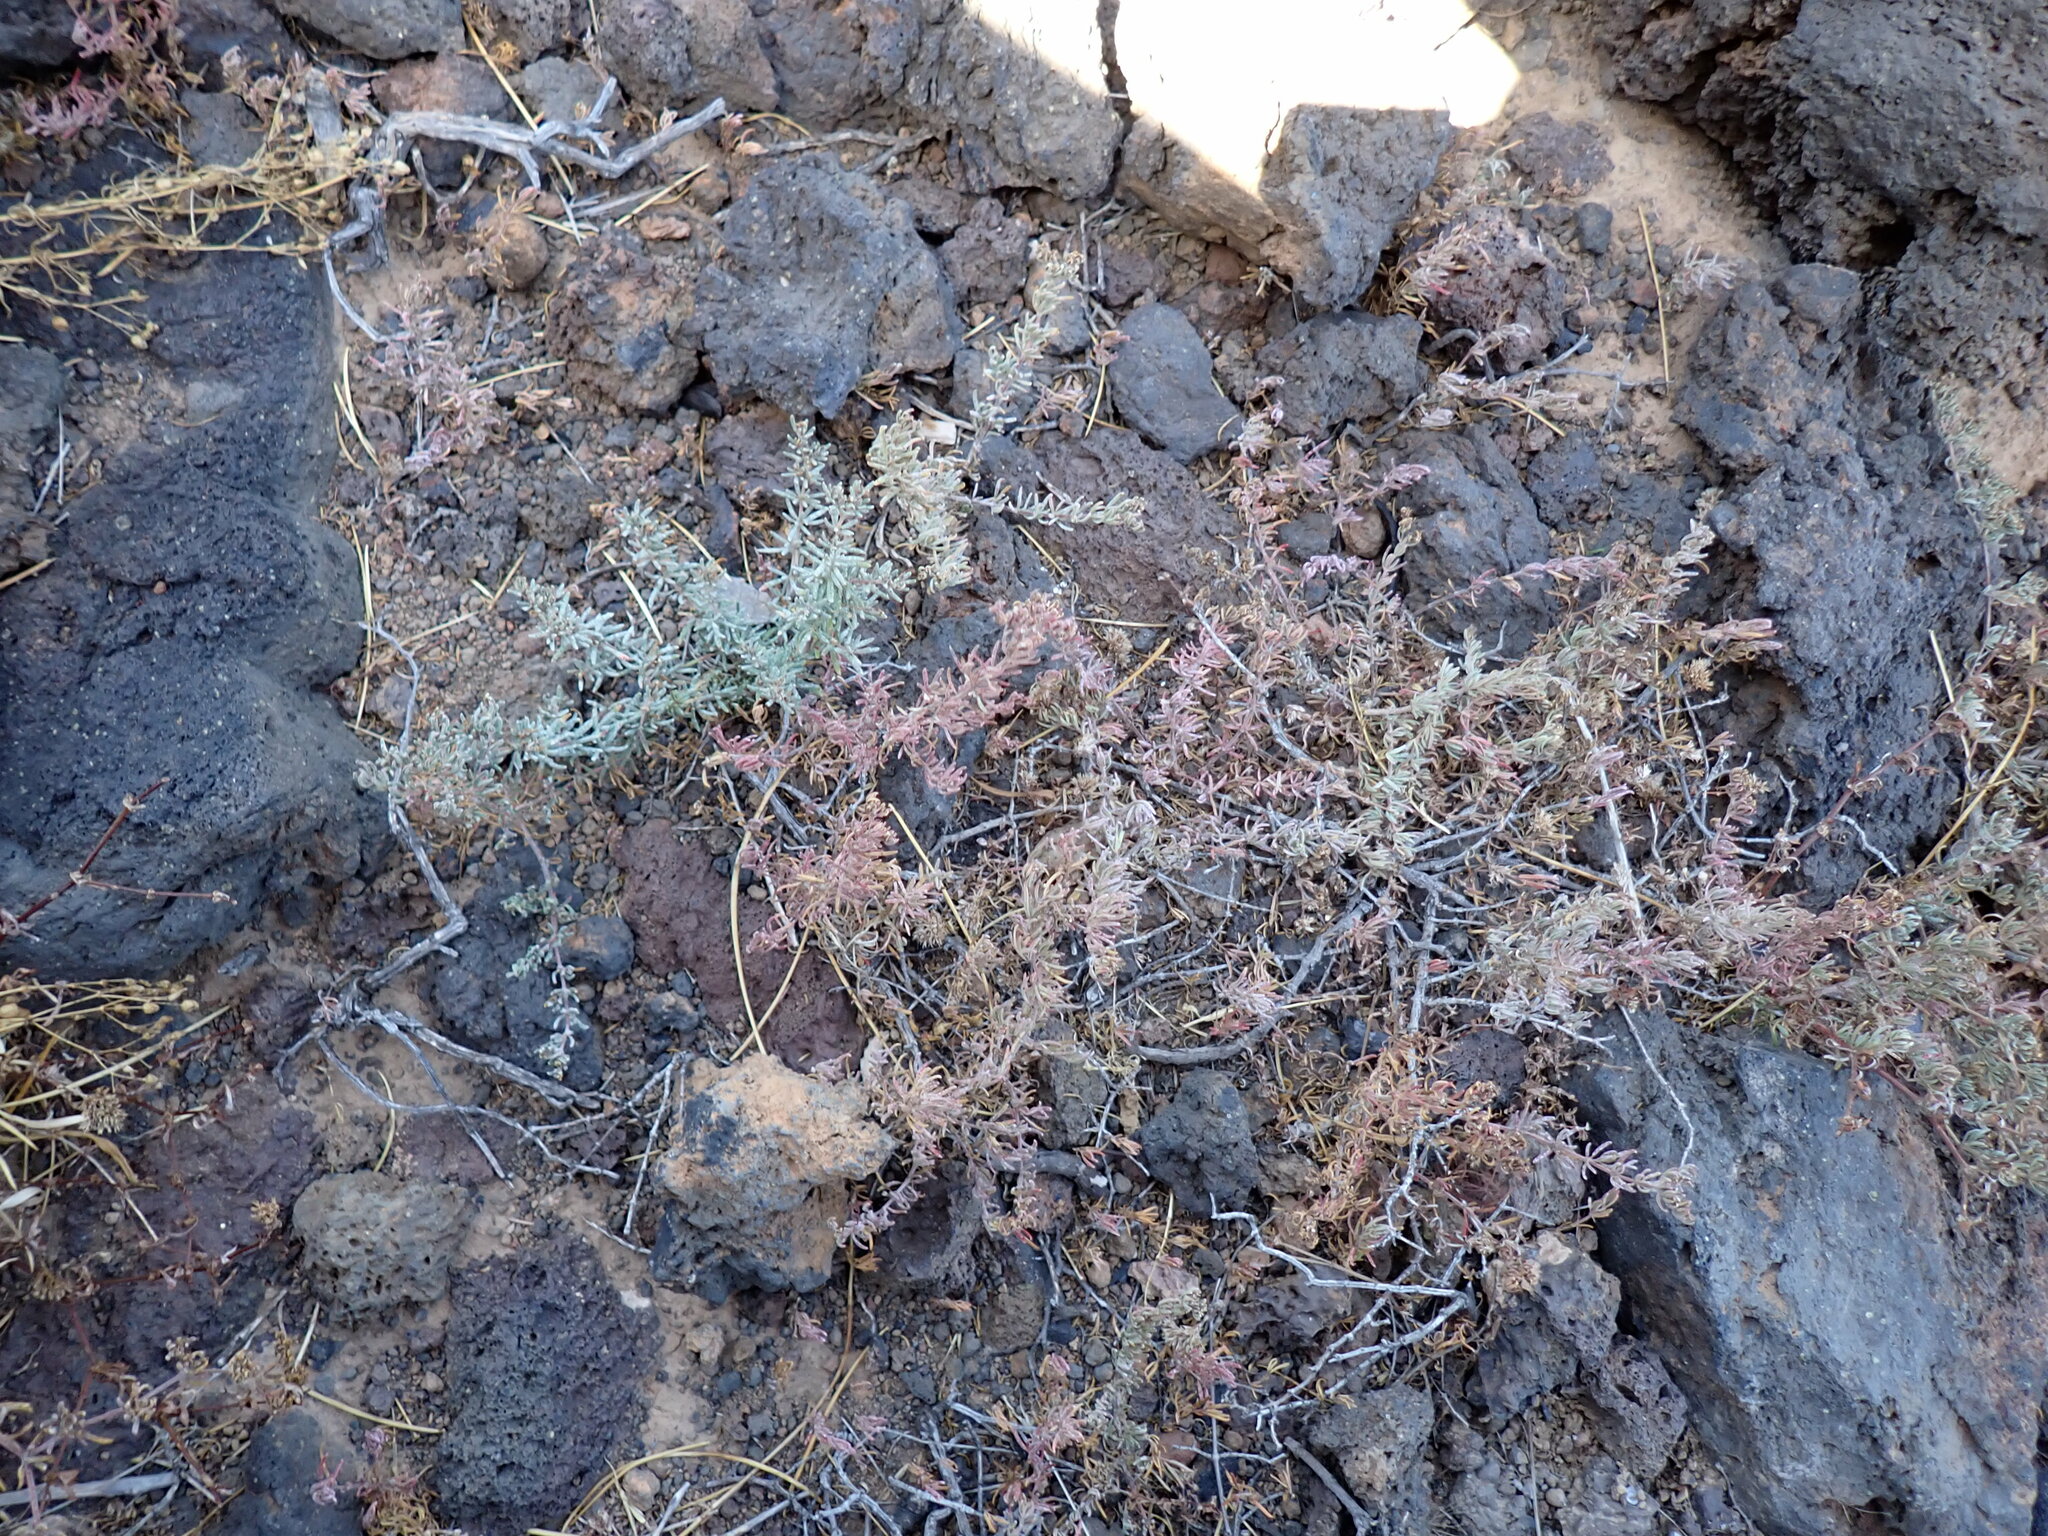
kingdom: Plantae
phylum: Tracheophyta
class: Magnoliopsida
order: Caryophyllales
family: Frankeniaceae
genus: Frankenia
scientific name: Frankenia capitata
